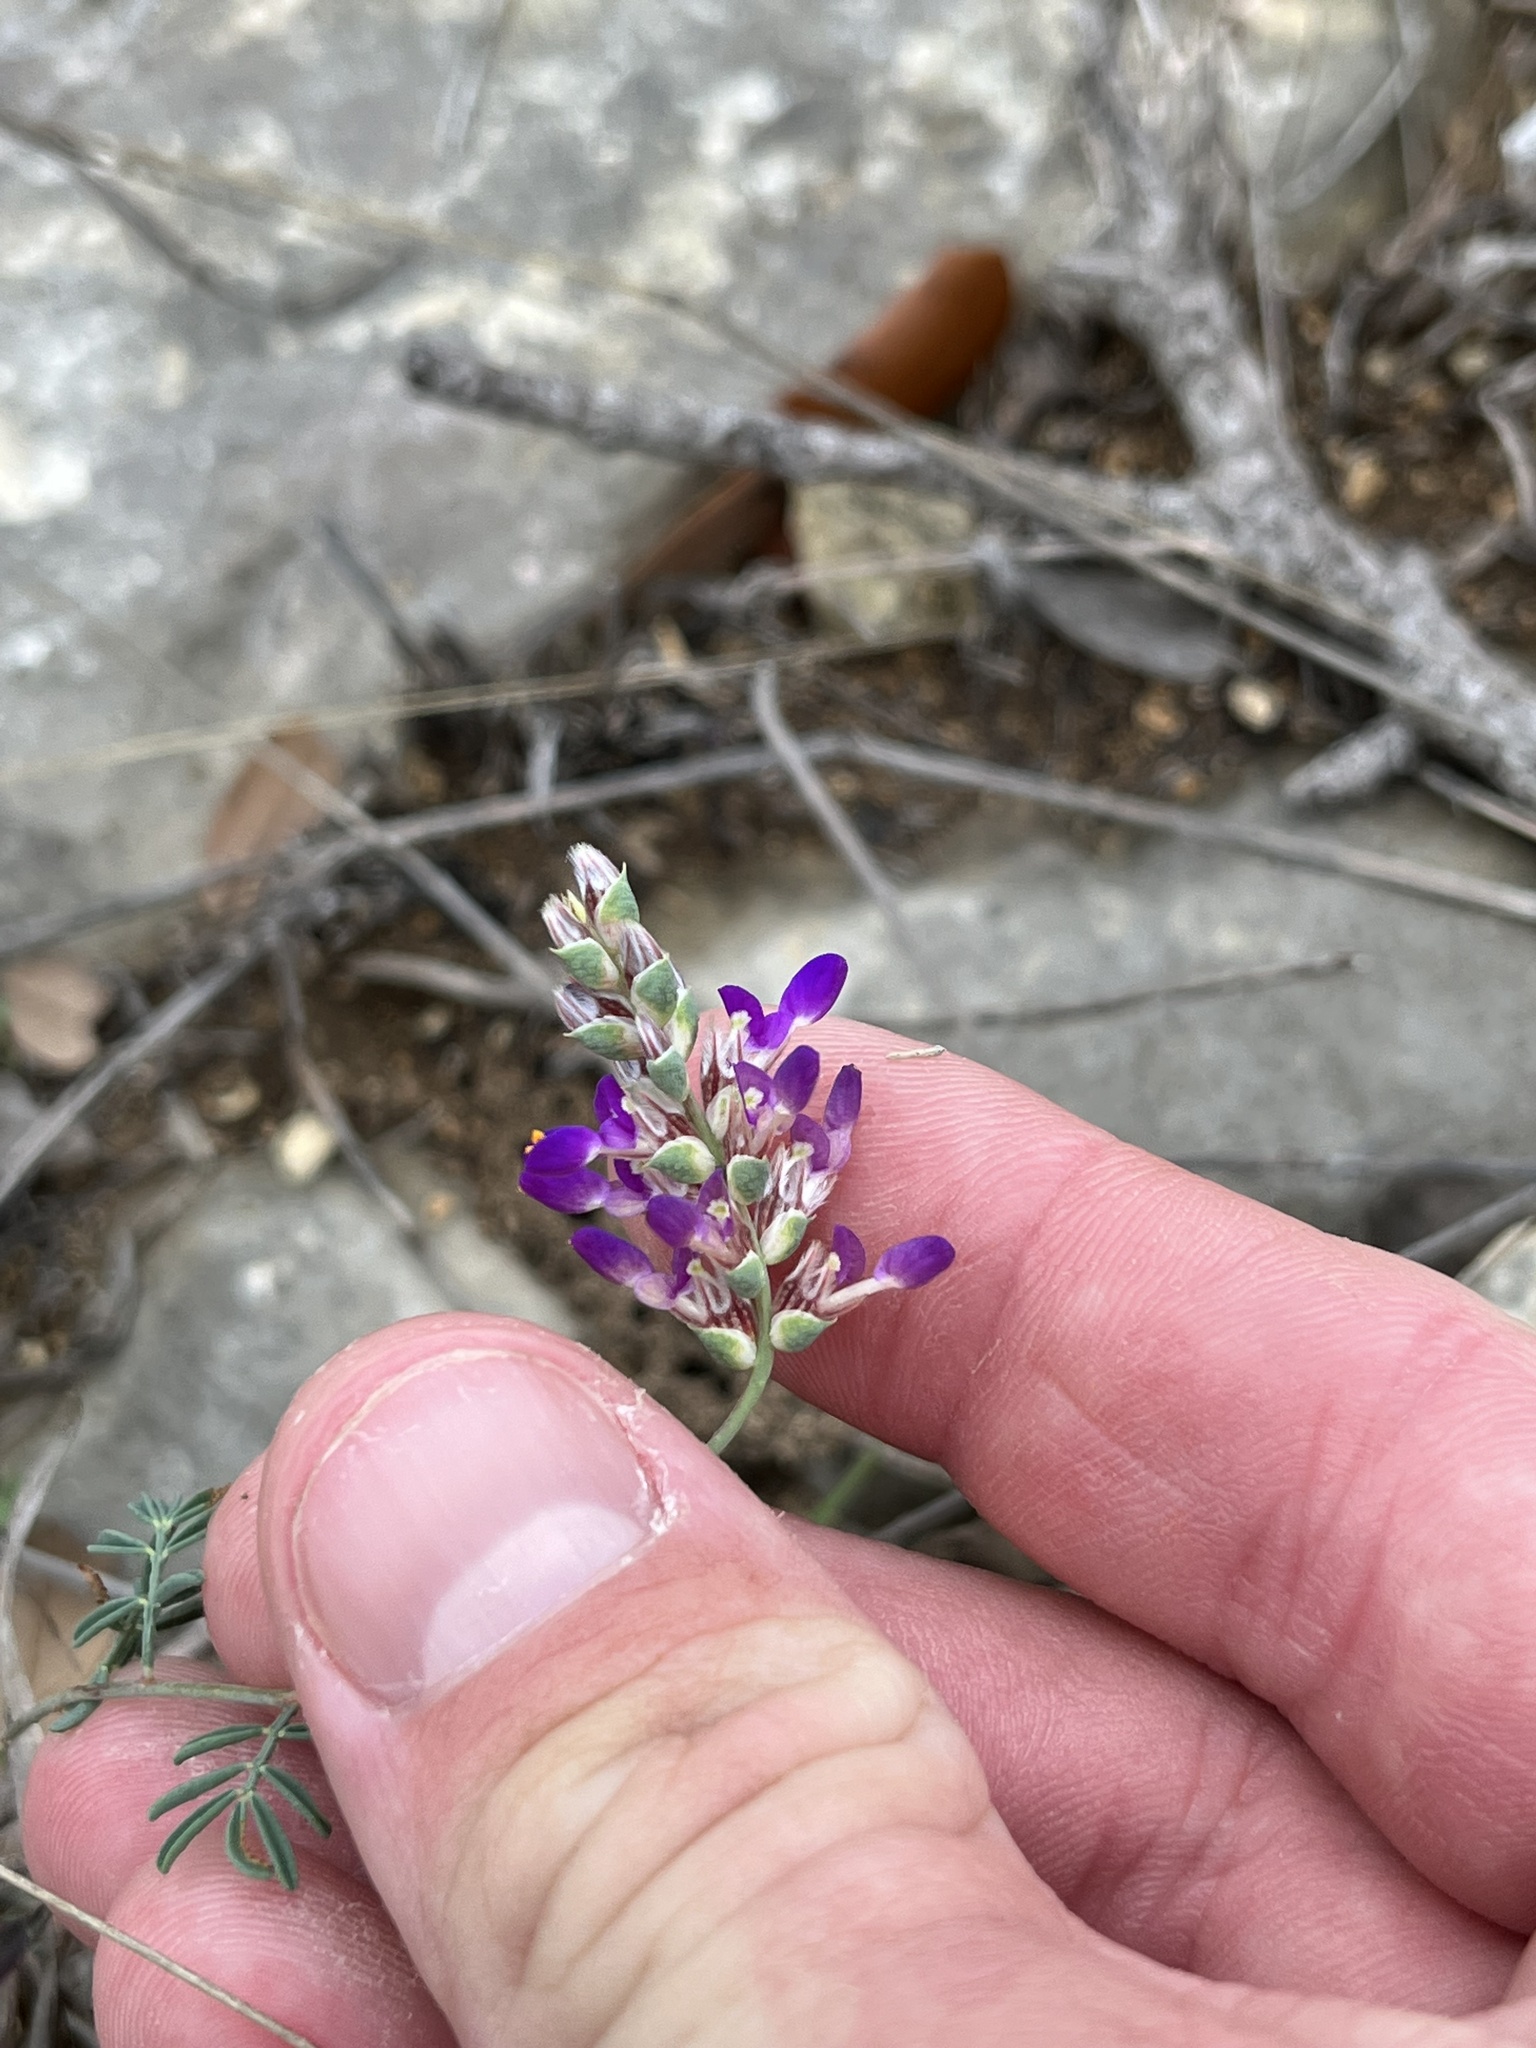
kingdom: Plantae
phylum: Tracheophyta
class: Magnoliopsida
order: Fabales
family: Fabaceae
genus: Dalea
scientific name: Dalea pogonathera
